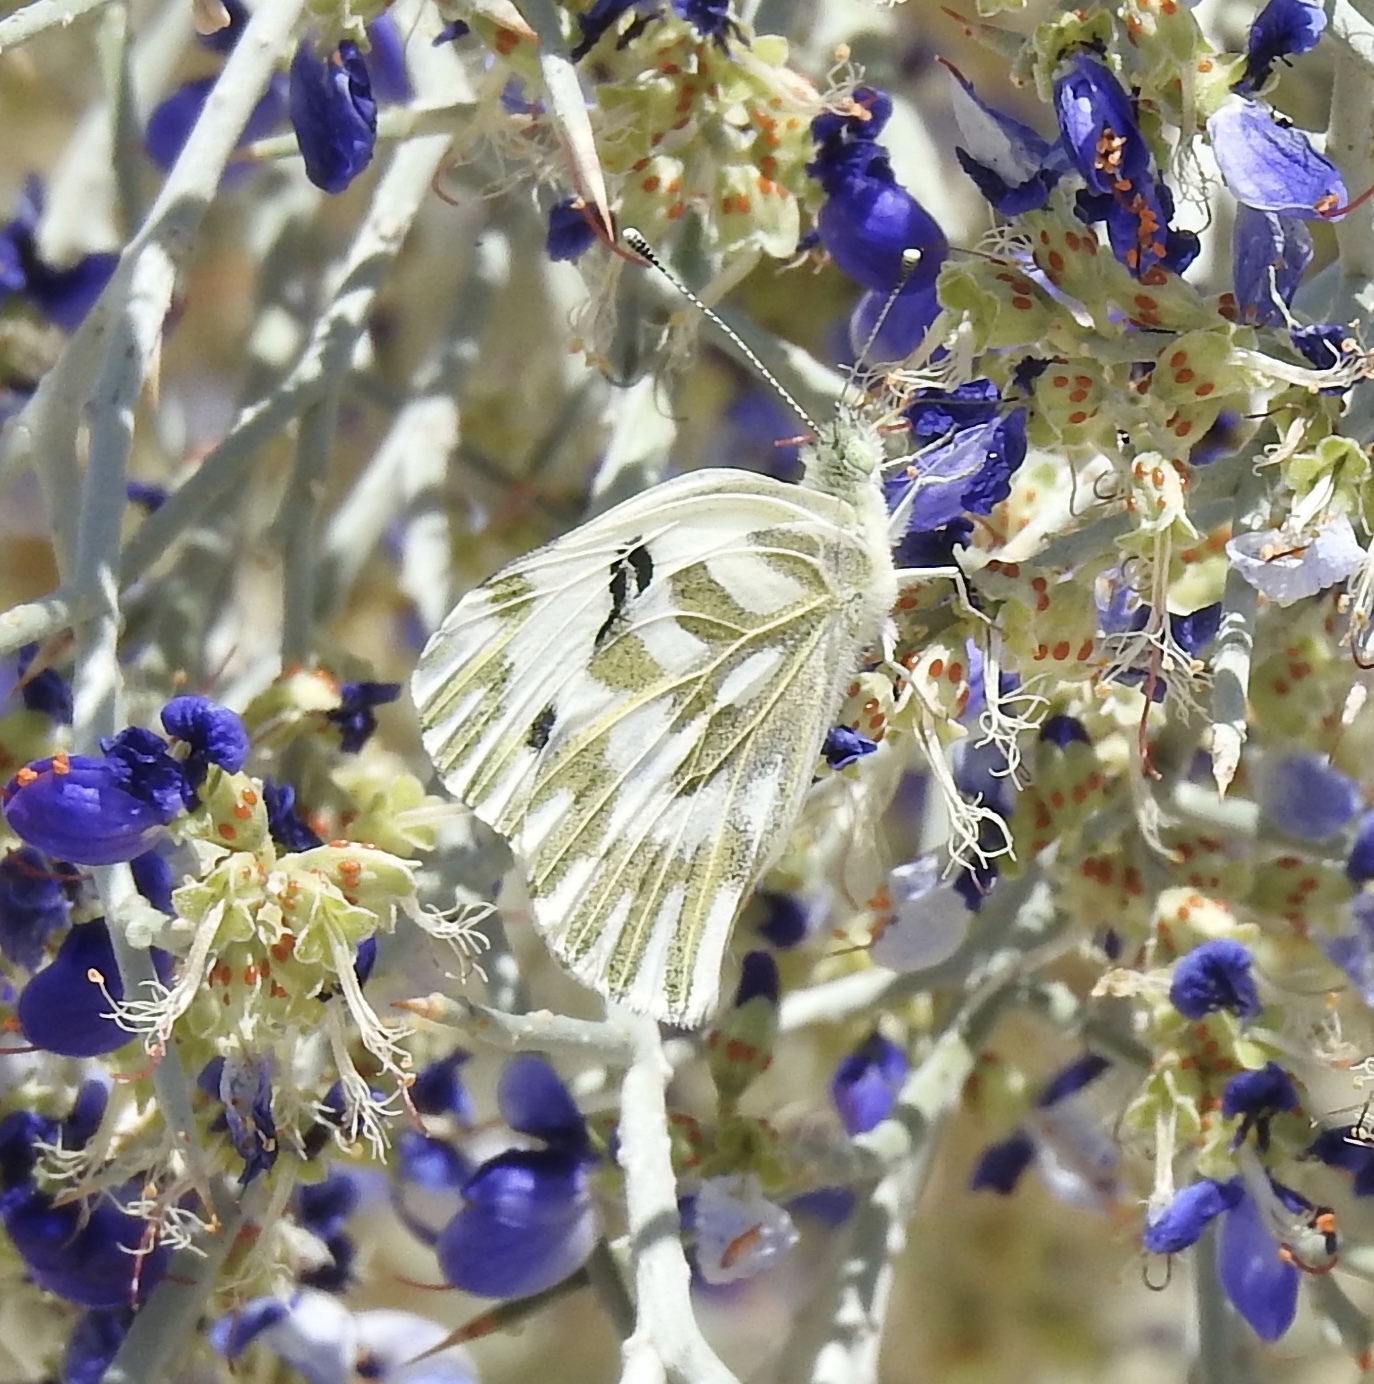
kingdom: Animalia
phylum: Arthropoda
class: Insecta
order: Lepidoptera
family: Pieridae
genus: Pontia
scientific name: Pontia beckerii
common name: Becker's white
